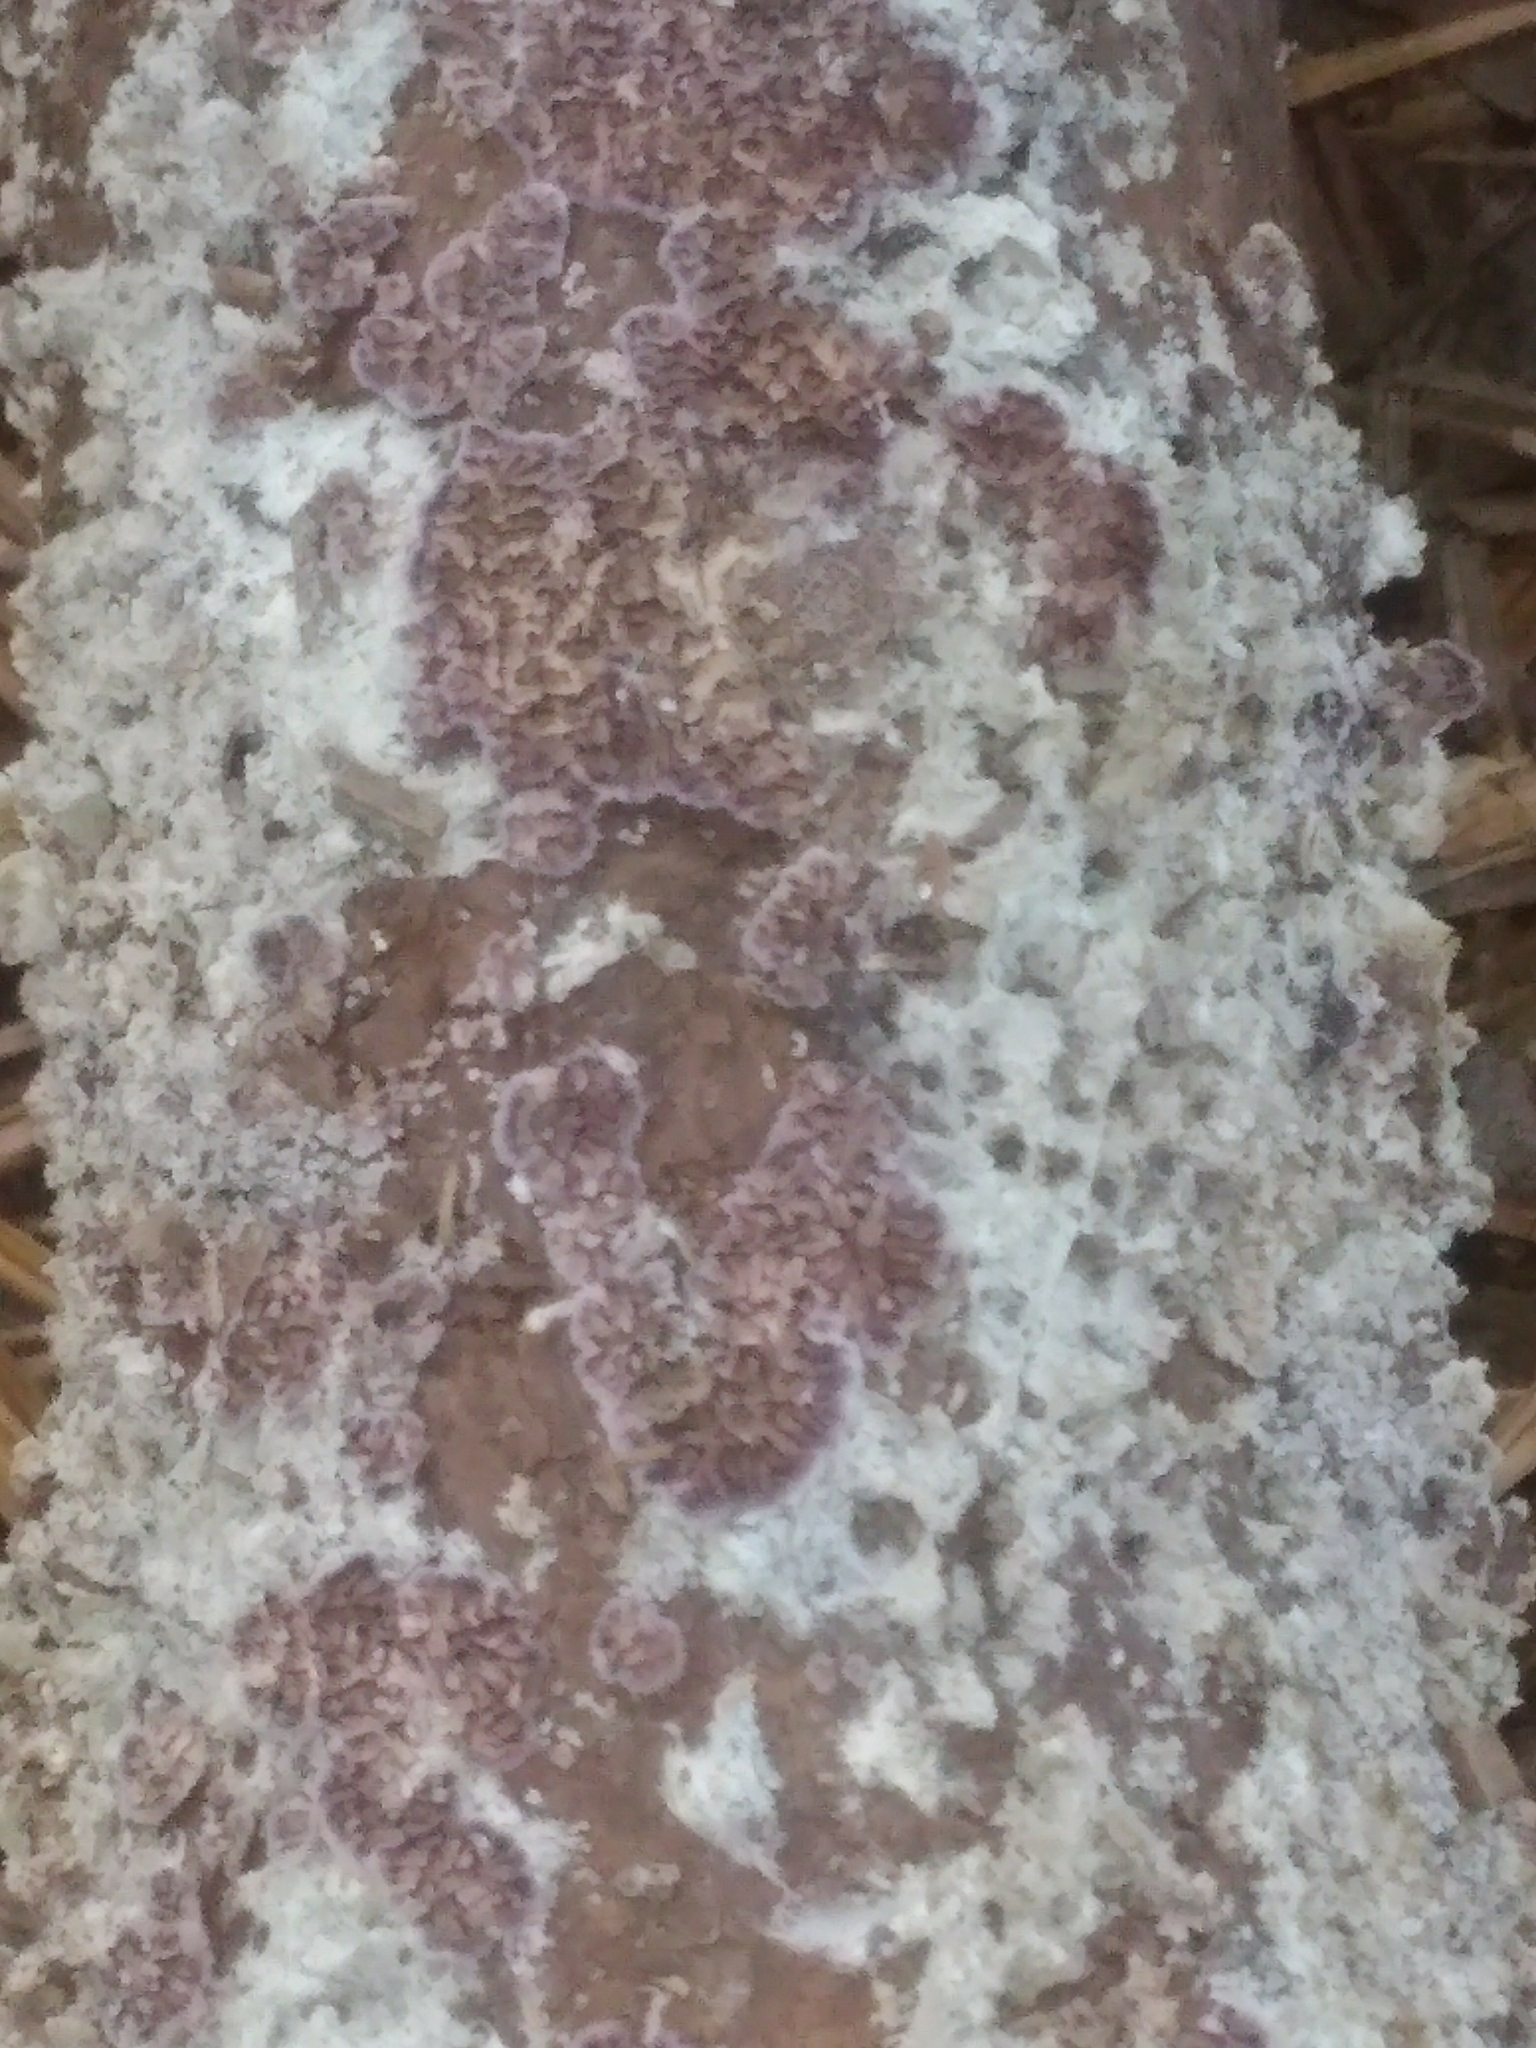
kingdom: Fungi
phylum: Basidiomycota
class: Agaricomycetes
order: Hymenochaetales
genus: Trichaptum
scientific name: Trichaptum biforme
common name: Violet-toothed polypore
